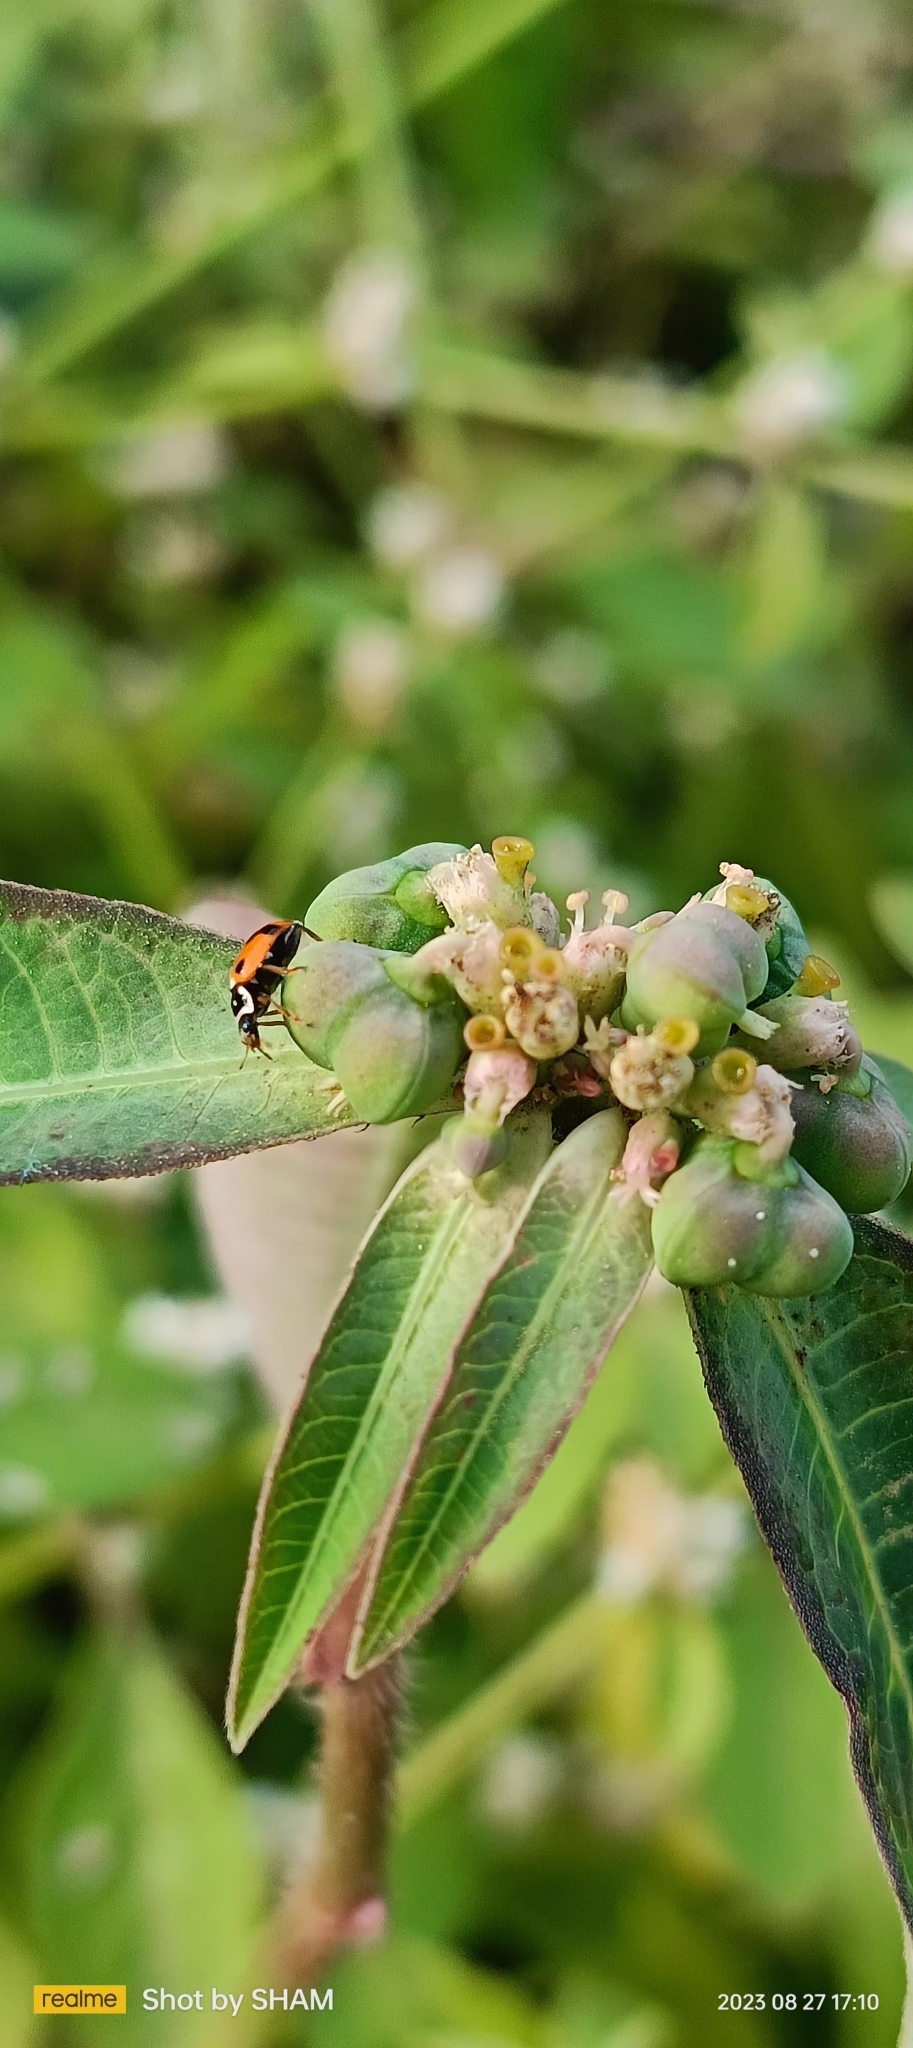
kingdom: Animalia
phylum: Arthropoda
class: Insecta
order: Coleoptera
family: Coccinellidae
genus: Hippodamia
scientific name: Hippodamia variegata
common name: Ladybird beetle
